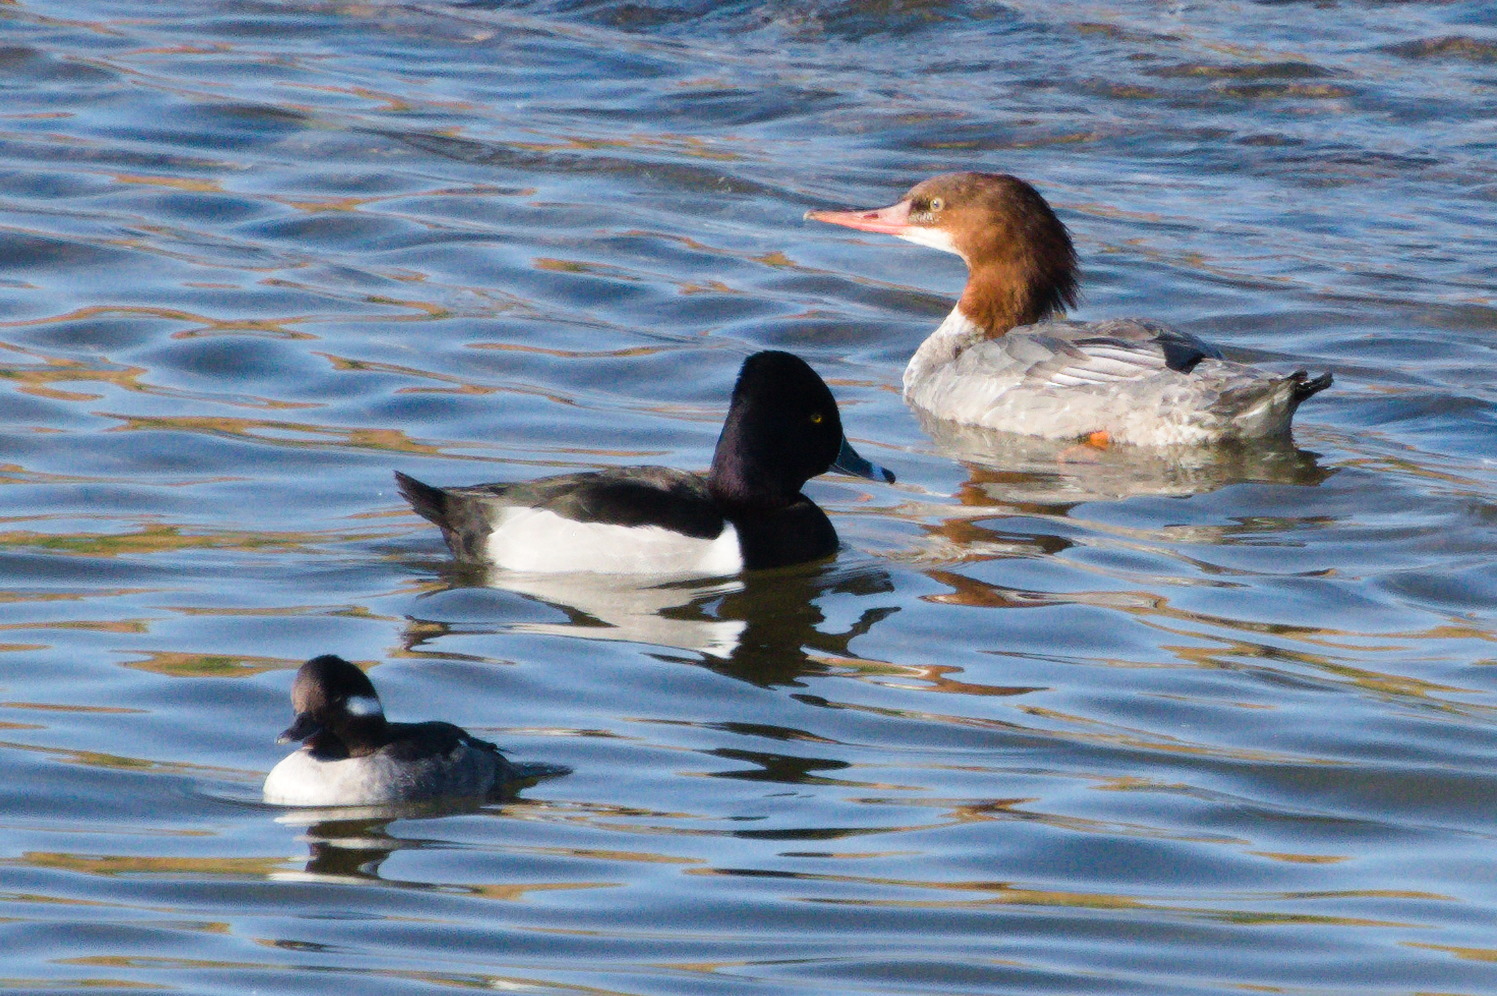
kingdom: Animalia
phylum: Chordata
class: Aves
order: Anseriformes
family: Anatidae
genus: Aythya
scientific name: Aythya collaris
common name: Ring-necked duck
